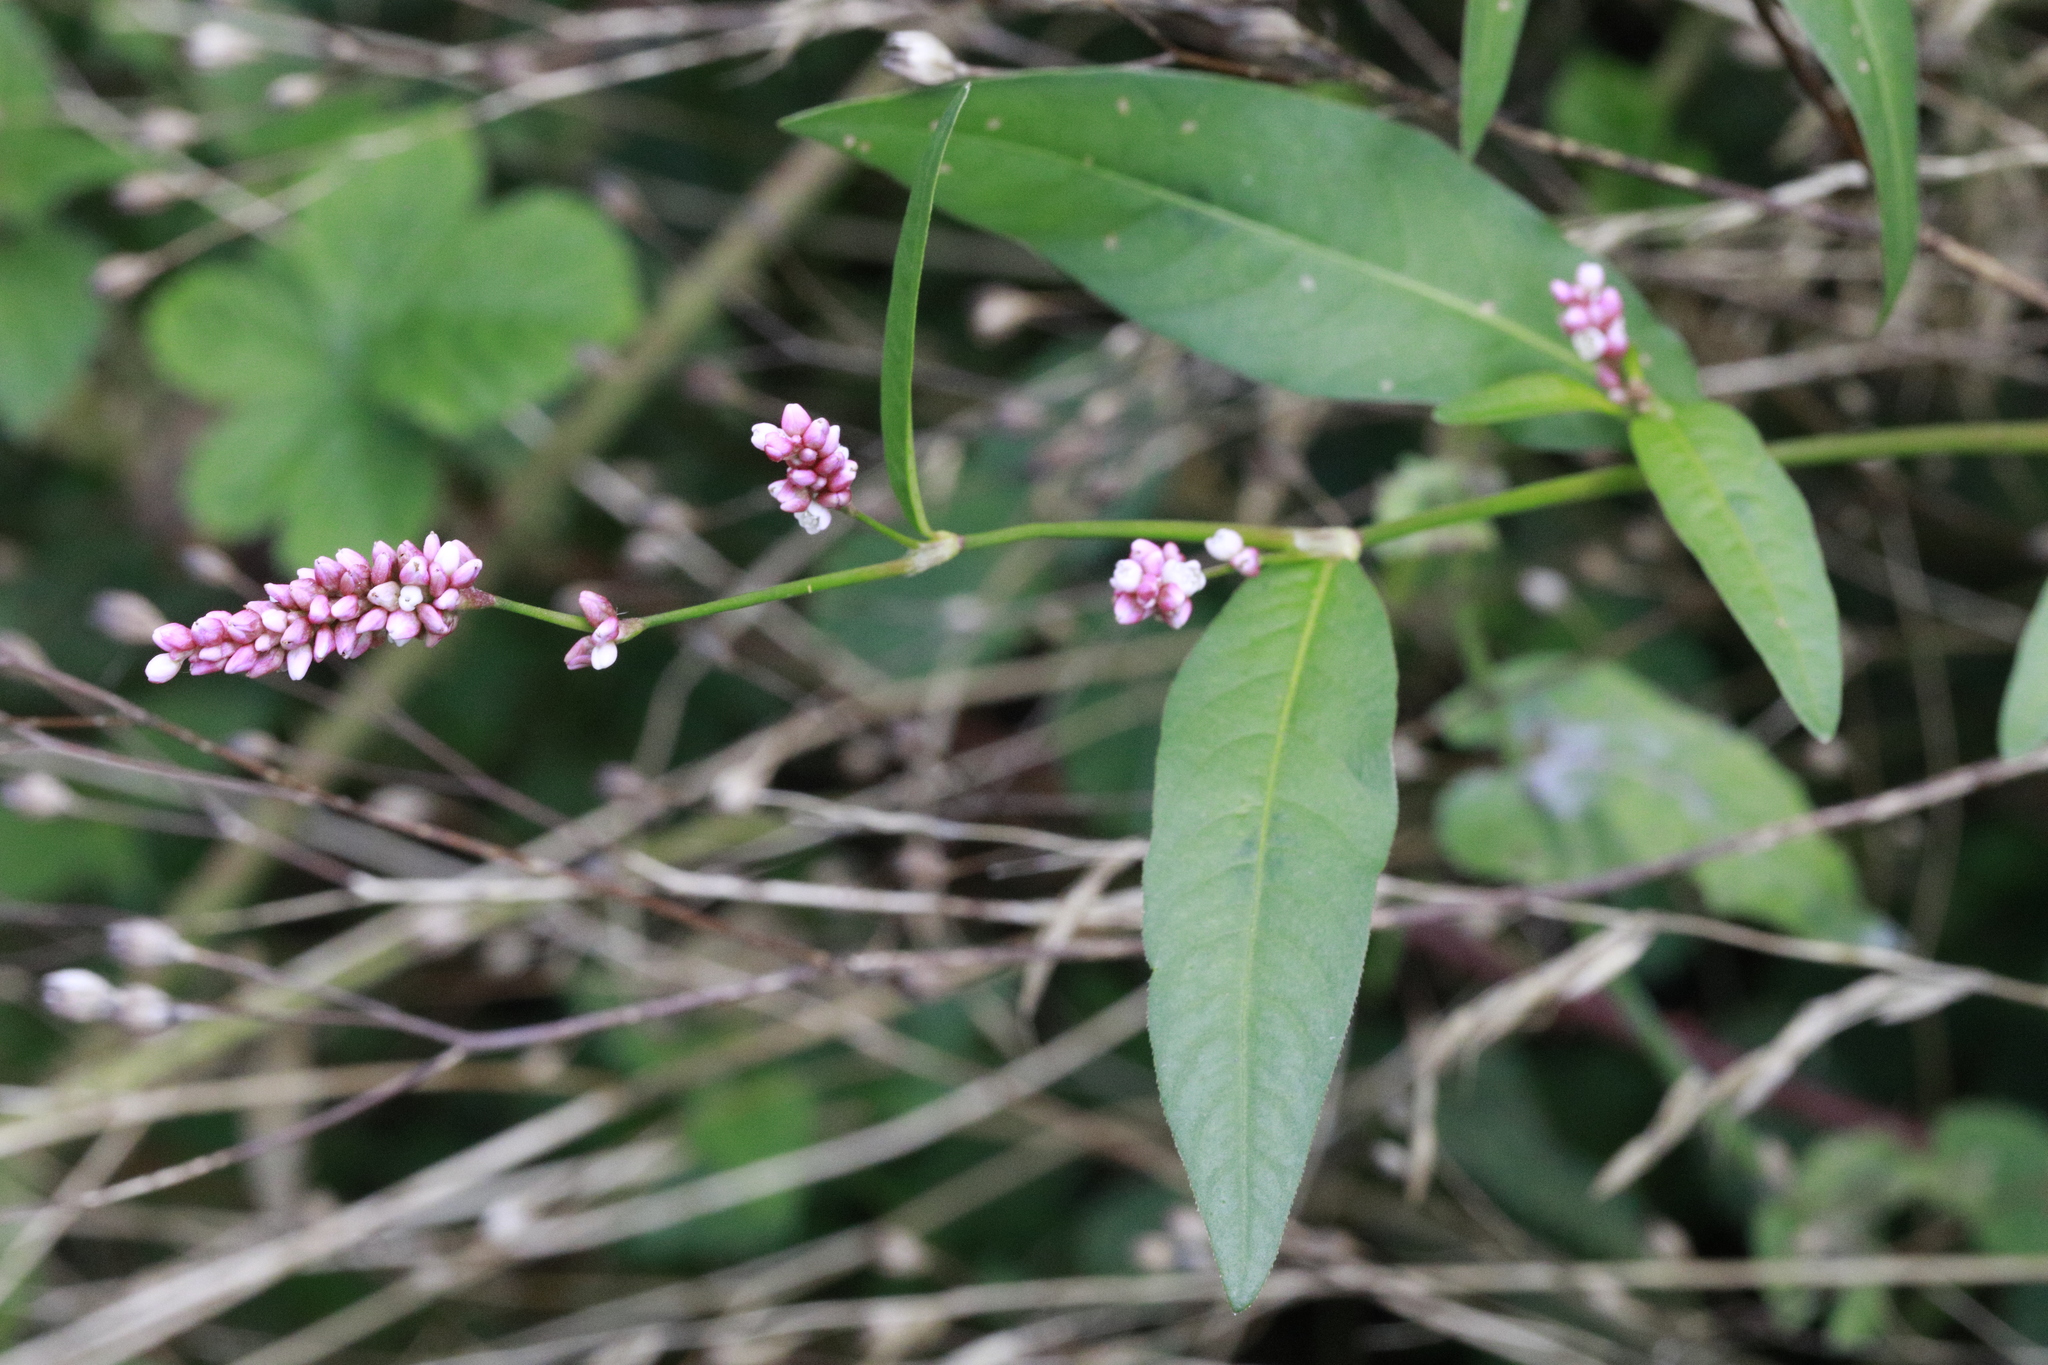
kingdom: Plantae
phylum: Tracheophyta
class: Magnoliopsida
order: Caryophyllales
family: Polygonaceae
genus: Persicaria
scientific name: Persicaria maculosa
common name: Redshank
